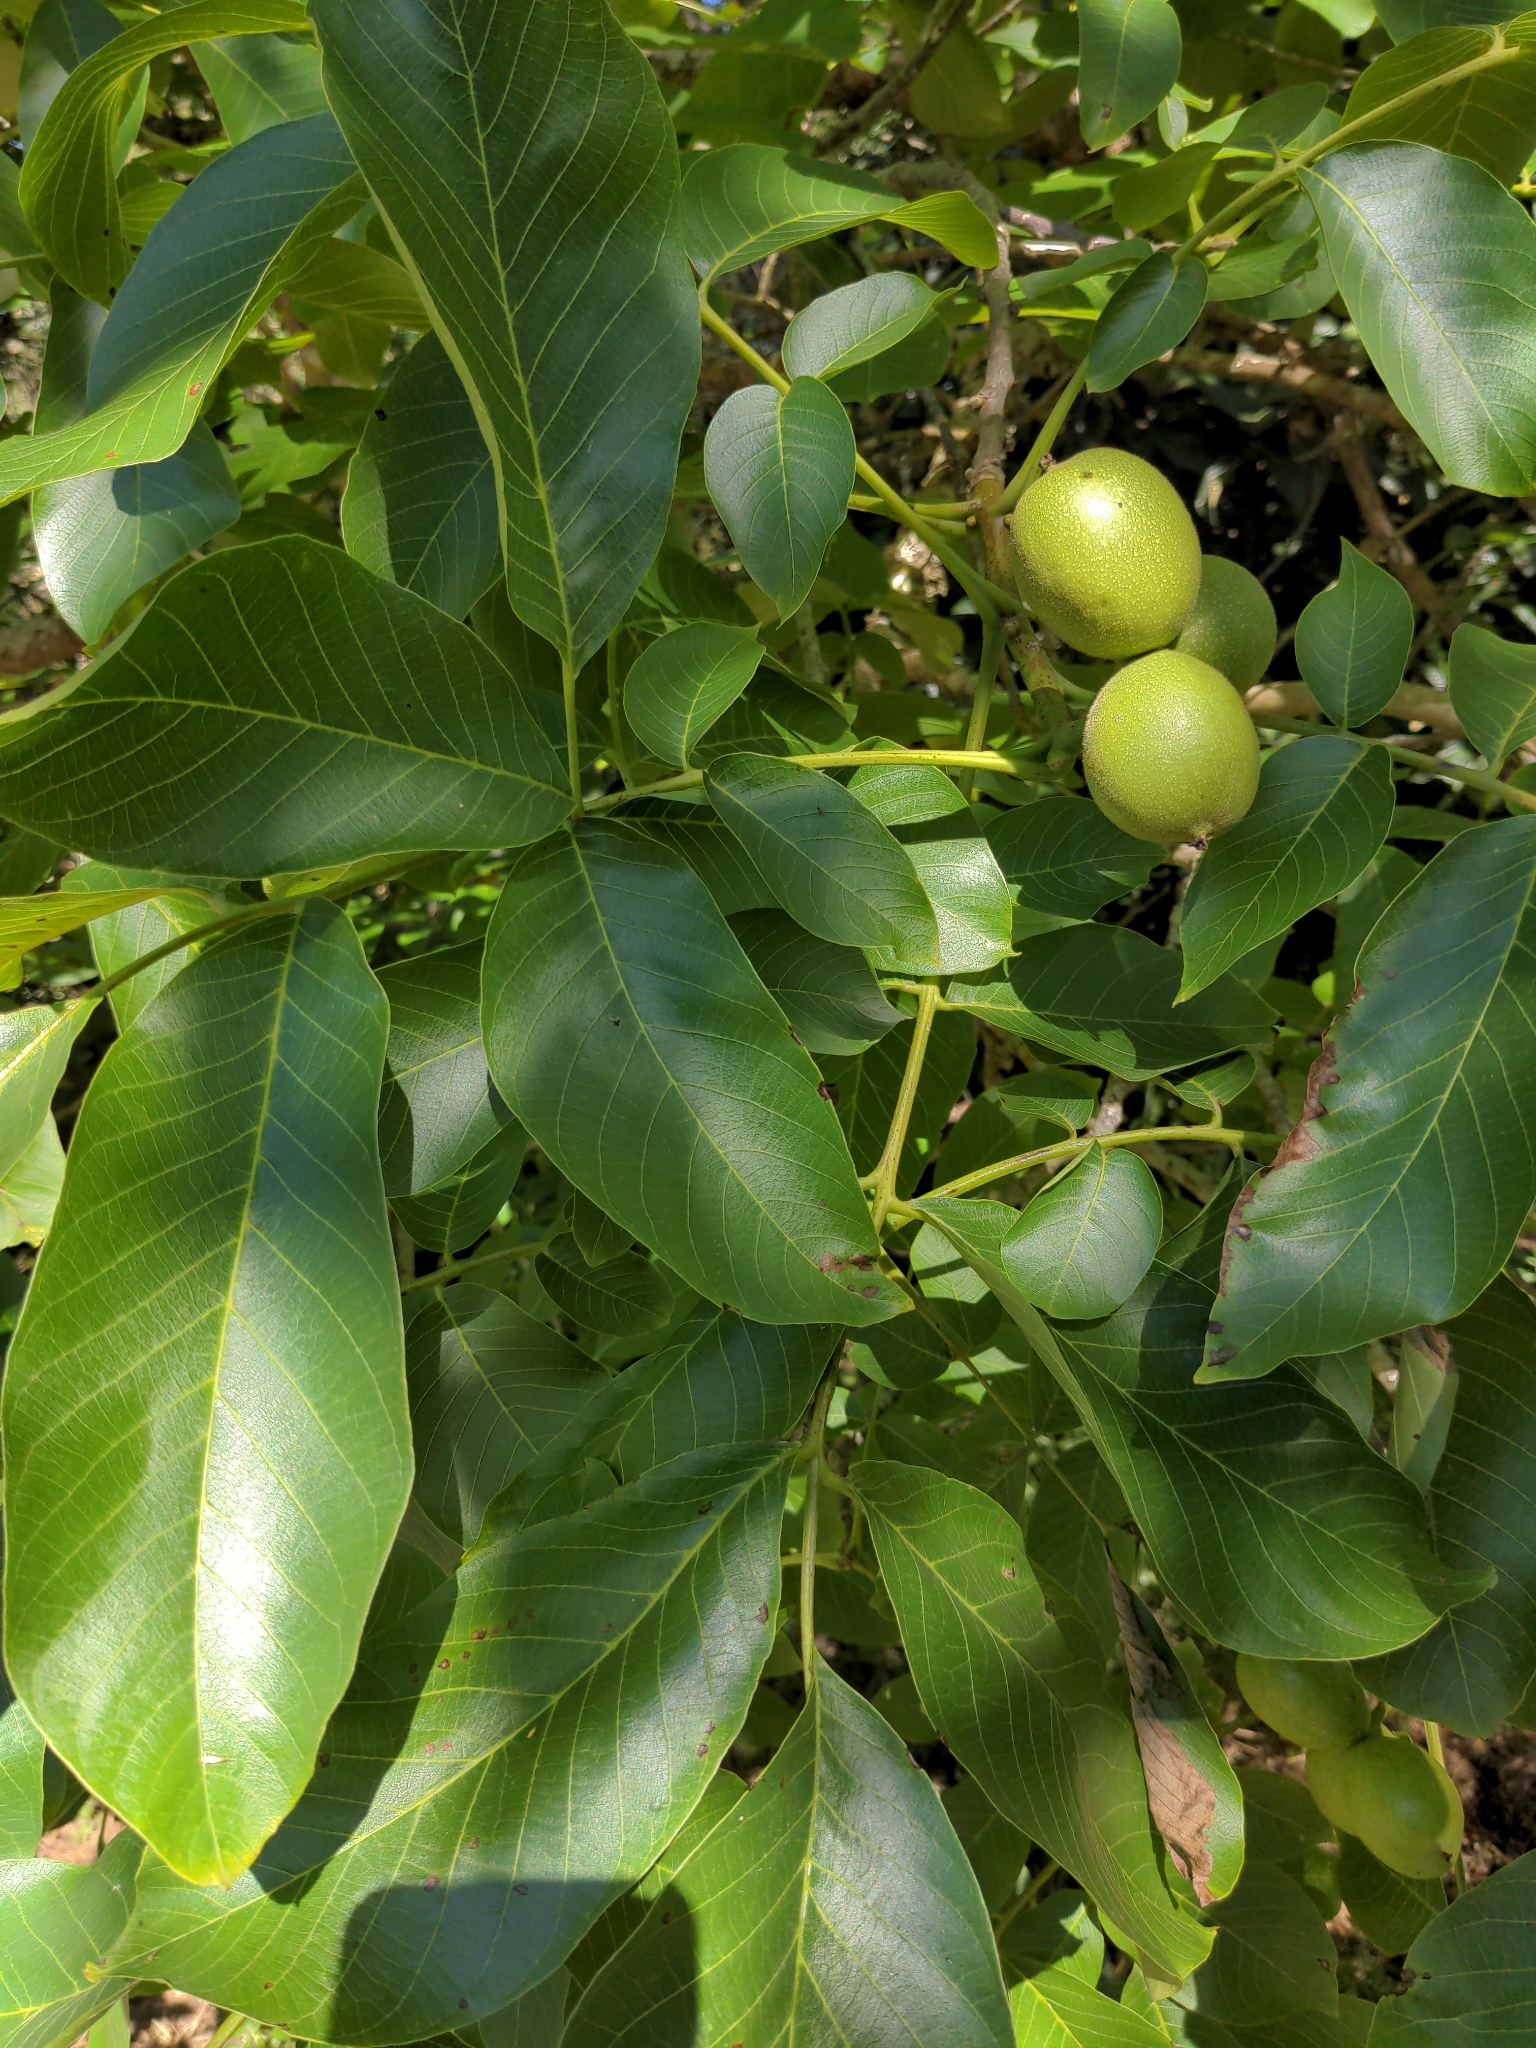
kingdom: Plantae
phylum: Tracheophyta
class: Magnoliopsida
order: Fagales
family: Juglandaceae
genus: Juglans
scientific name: Juglans regia
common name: Walnut
